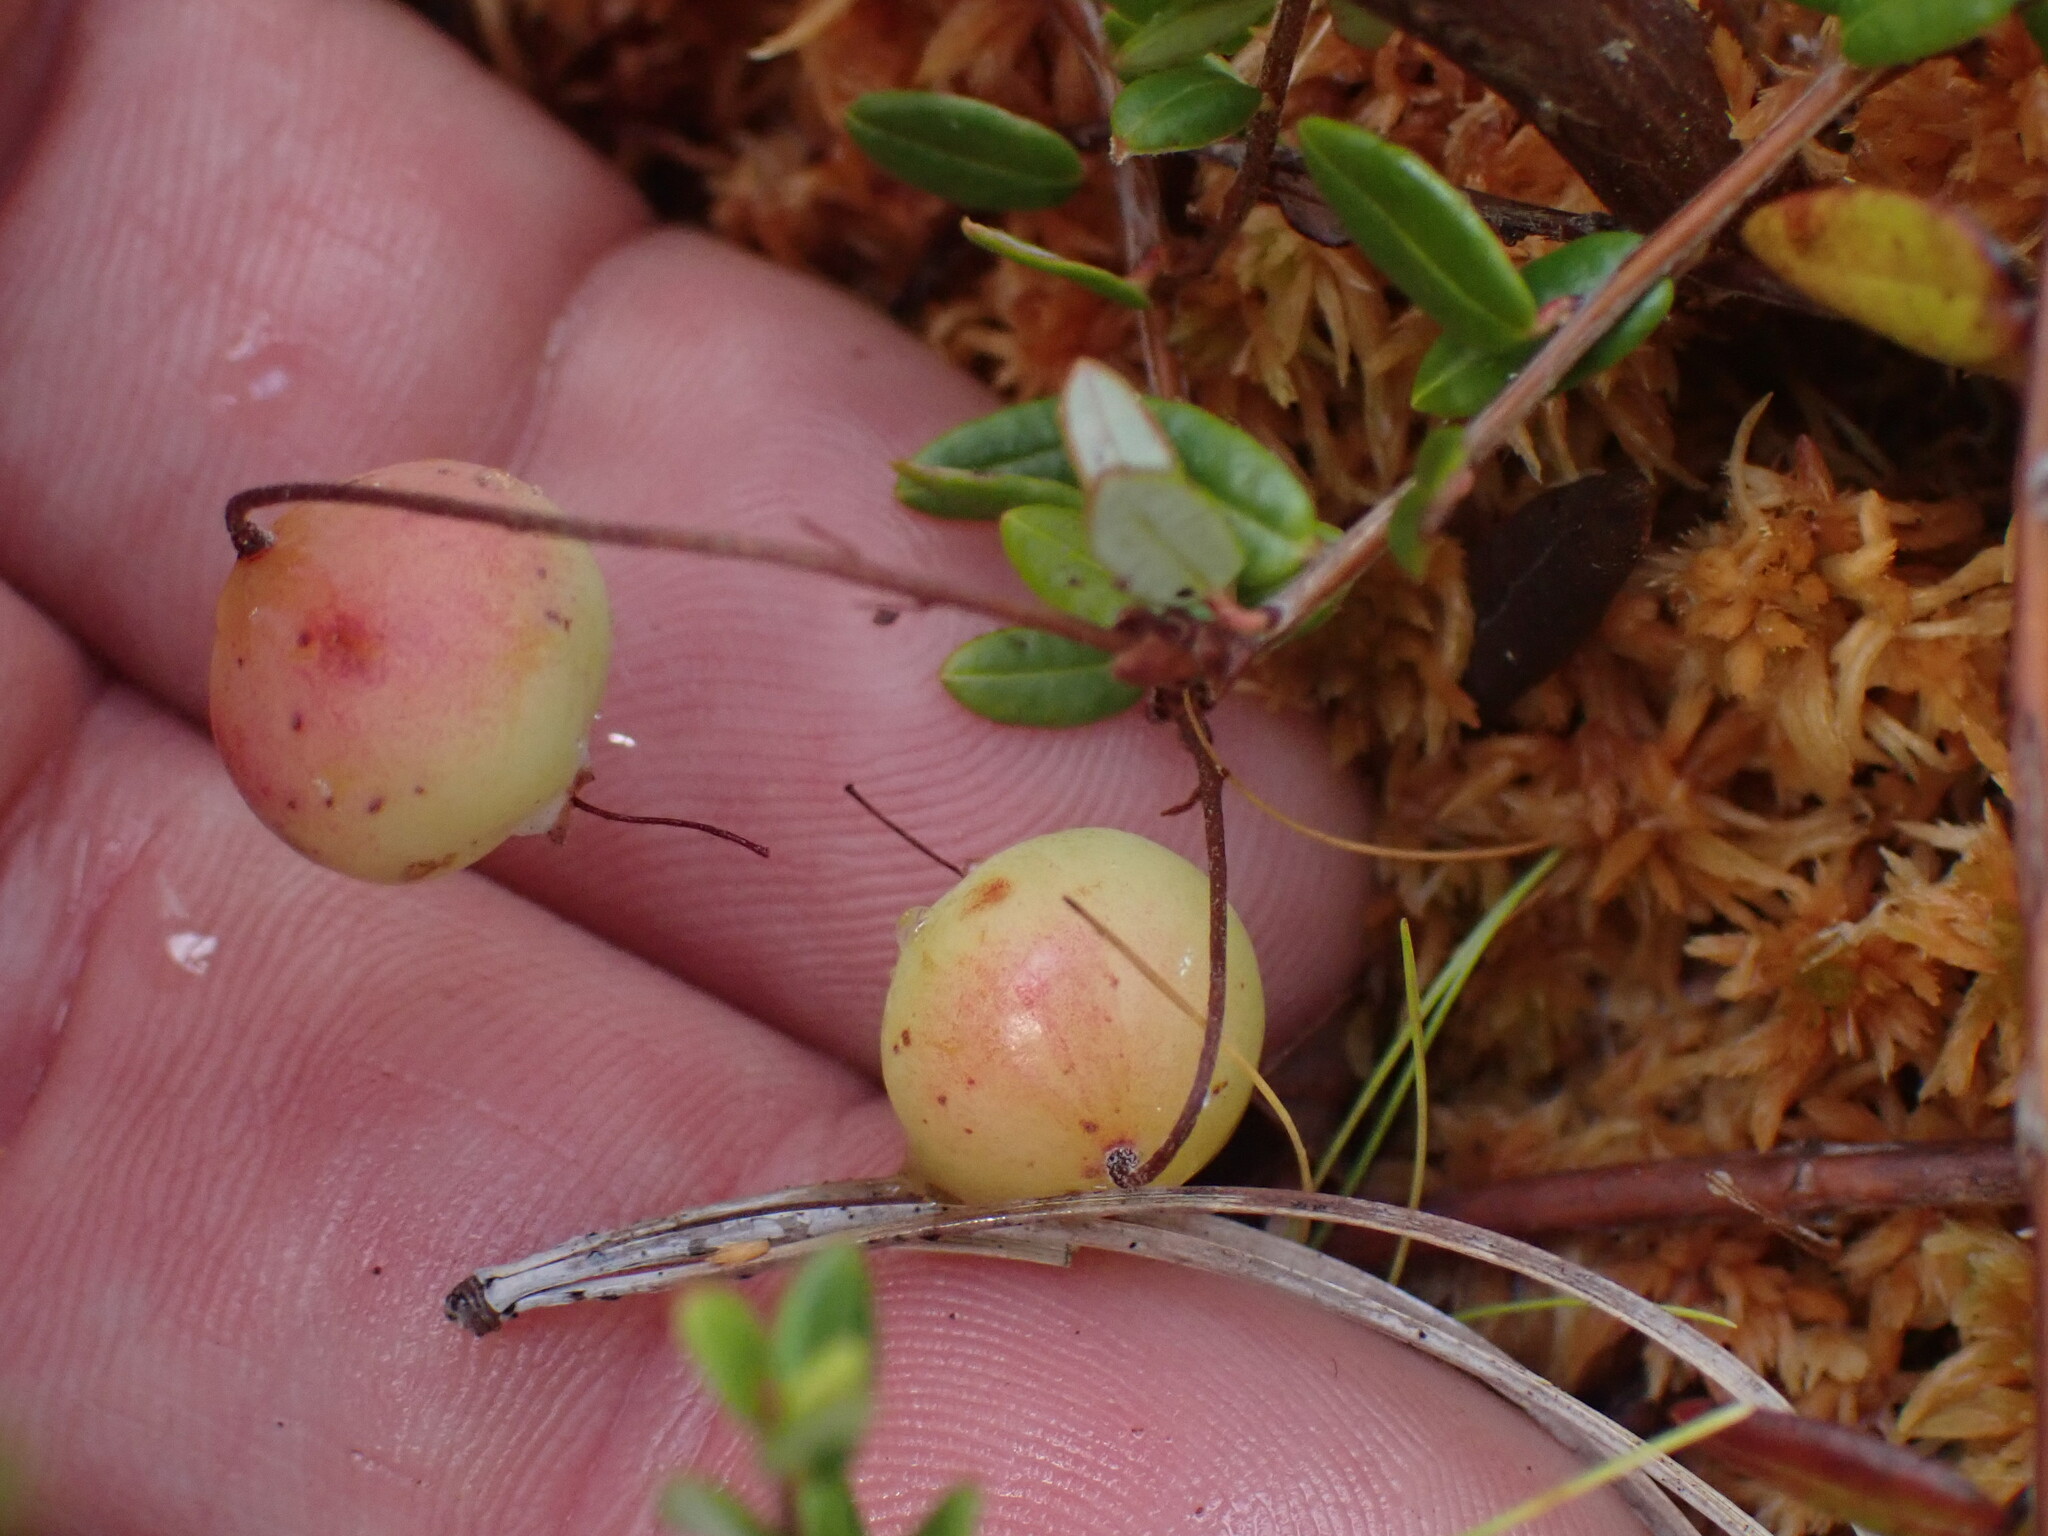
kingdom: Plantae
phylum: Tracheophyta
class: Magnoliopsida
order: Ericales
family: Ericaceae
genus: Vaccinium
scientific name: Vaccinium oxycoccos
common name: Cranberry
